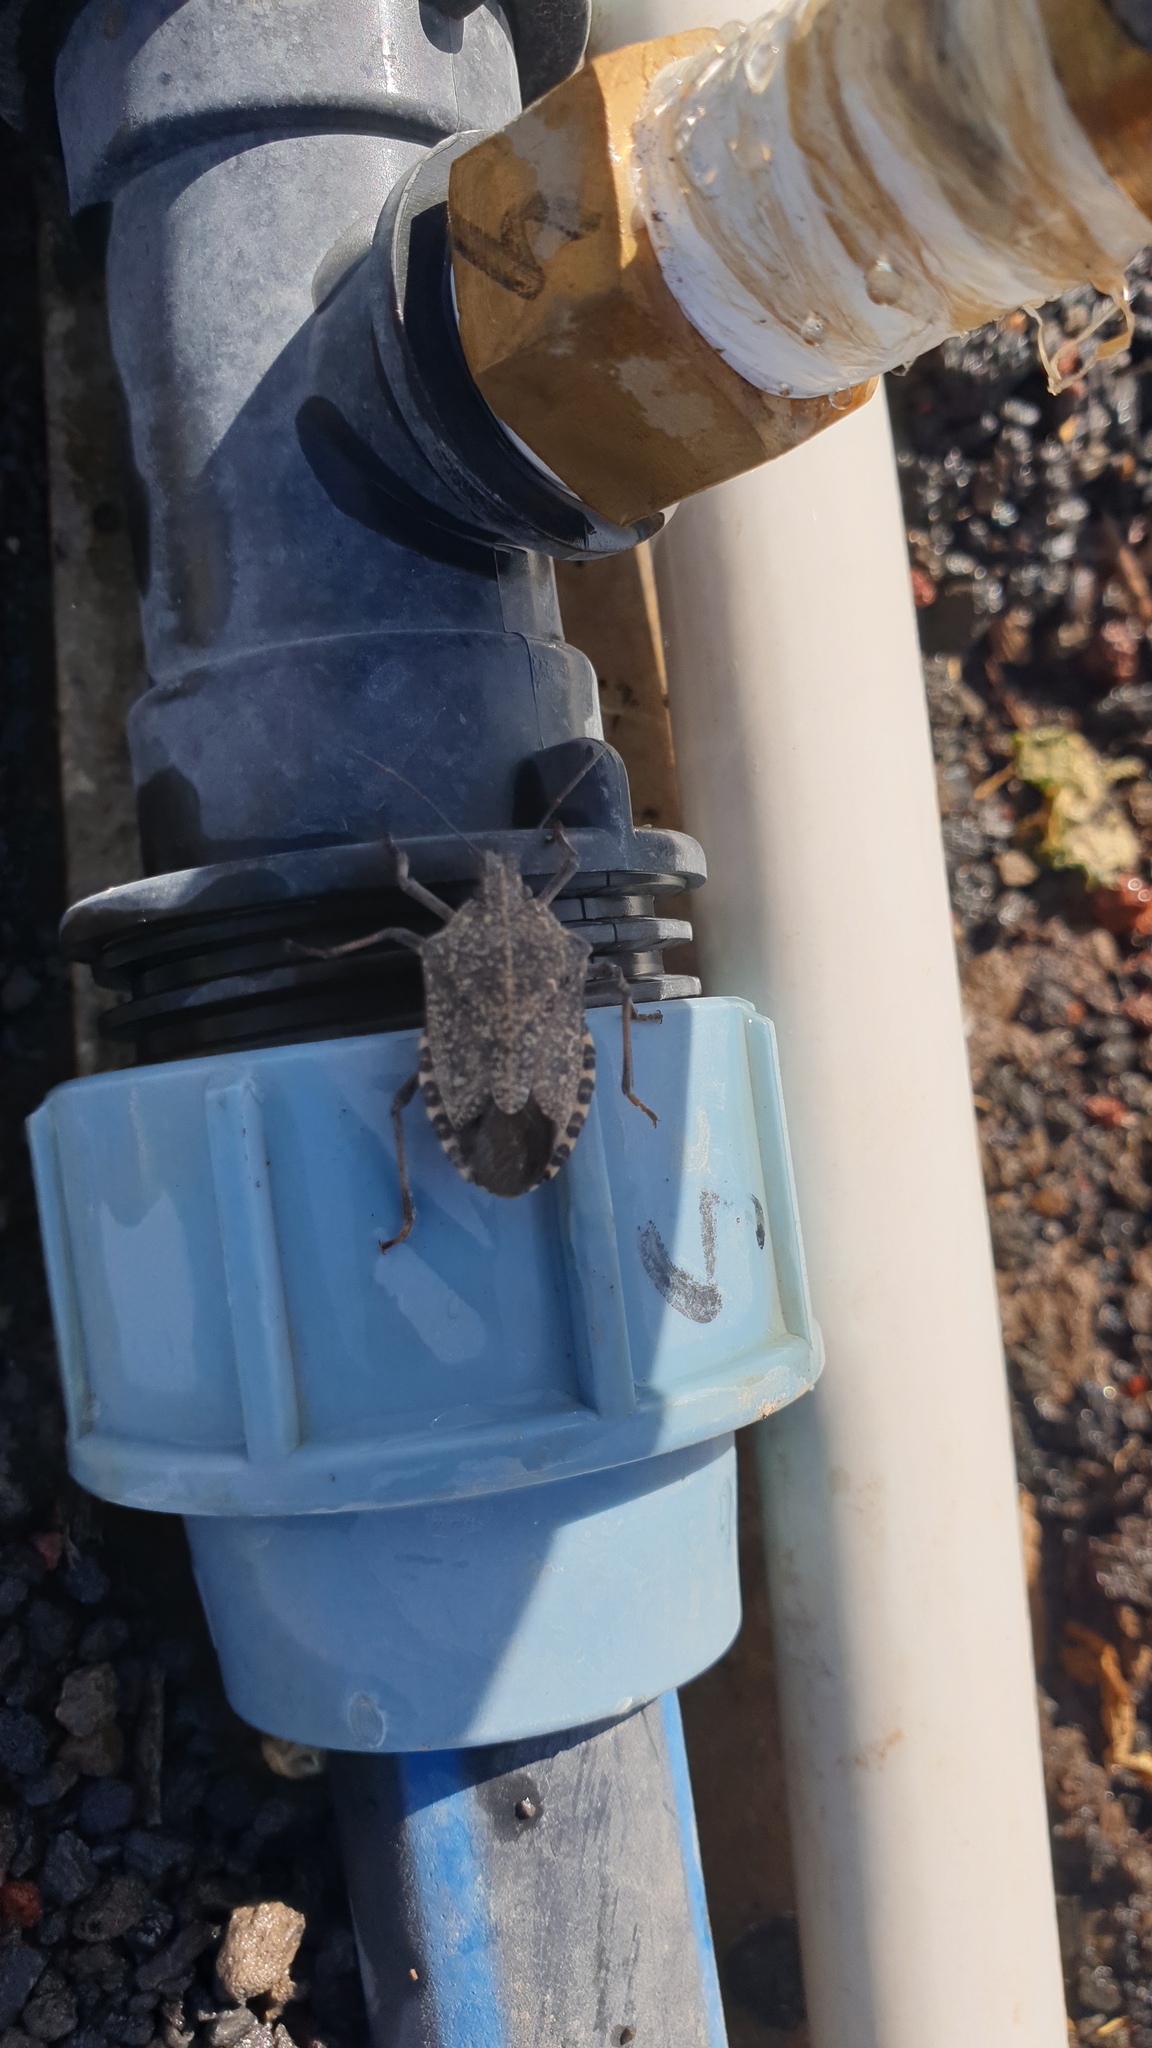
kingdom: Animalia
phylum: Arthropoda
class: Insecta
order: Hemiptera
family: Pentatomidae
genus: Apodiphus
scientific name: Apodiphus amygdali
